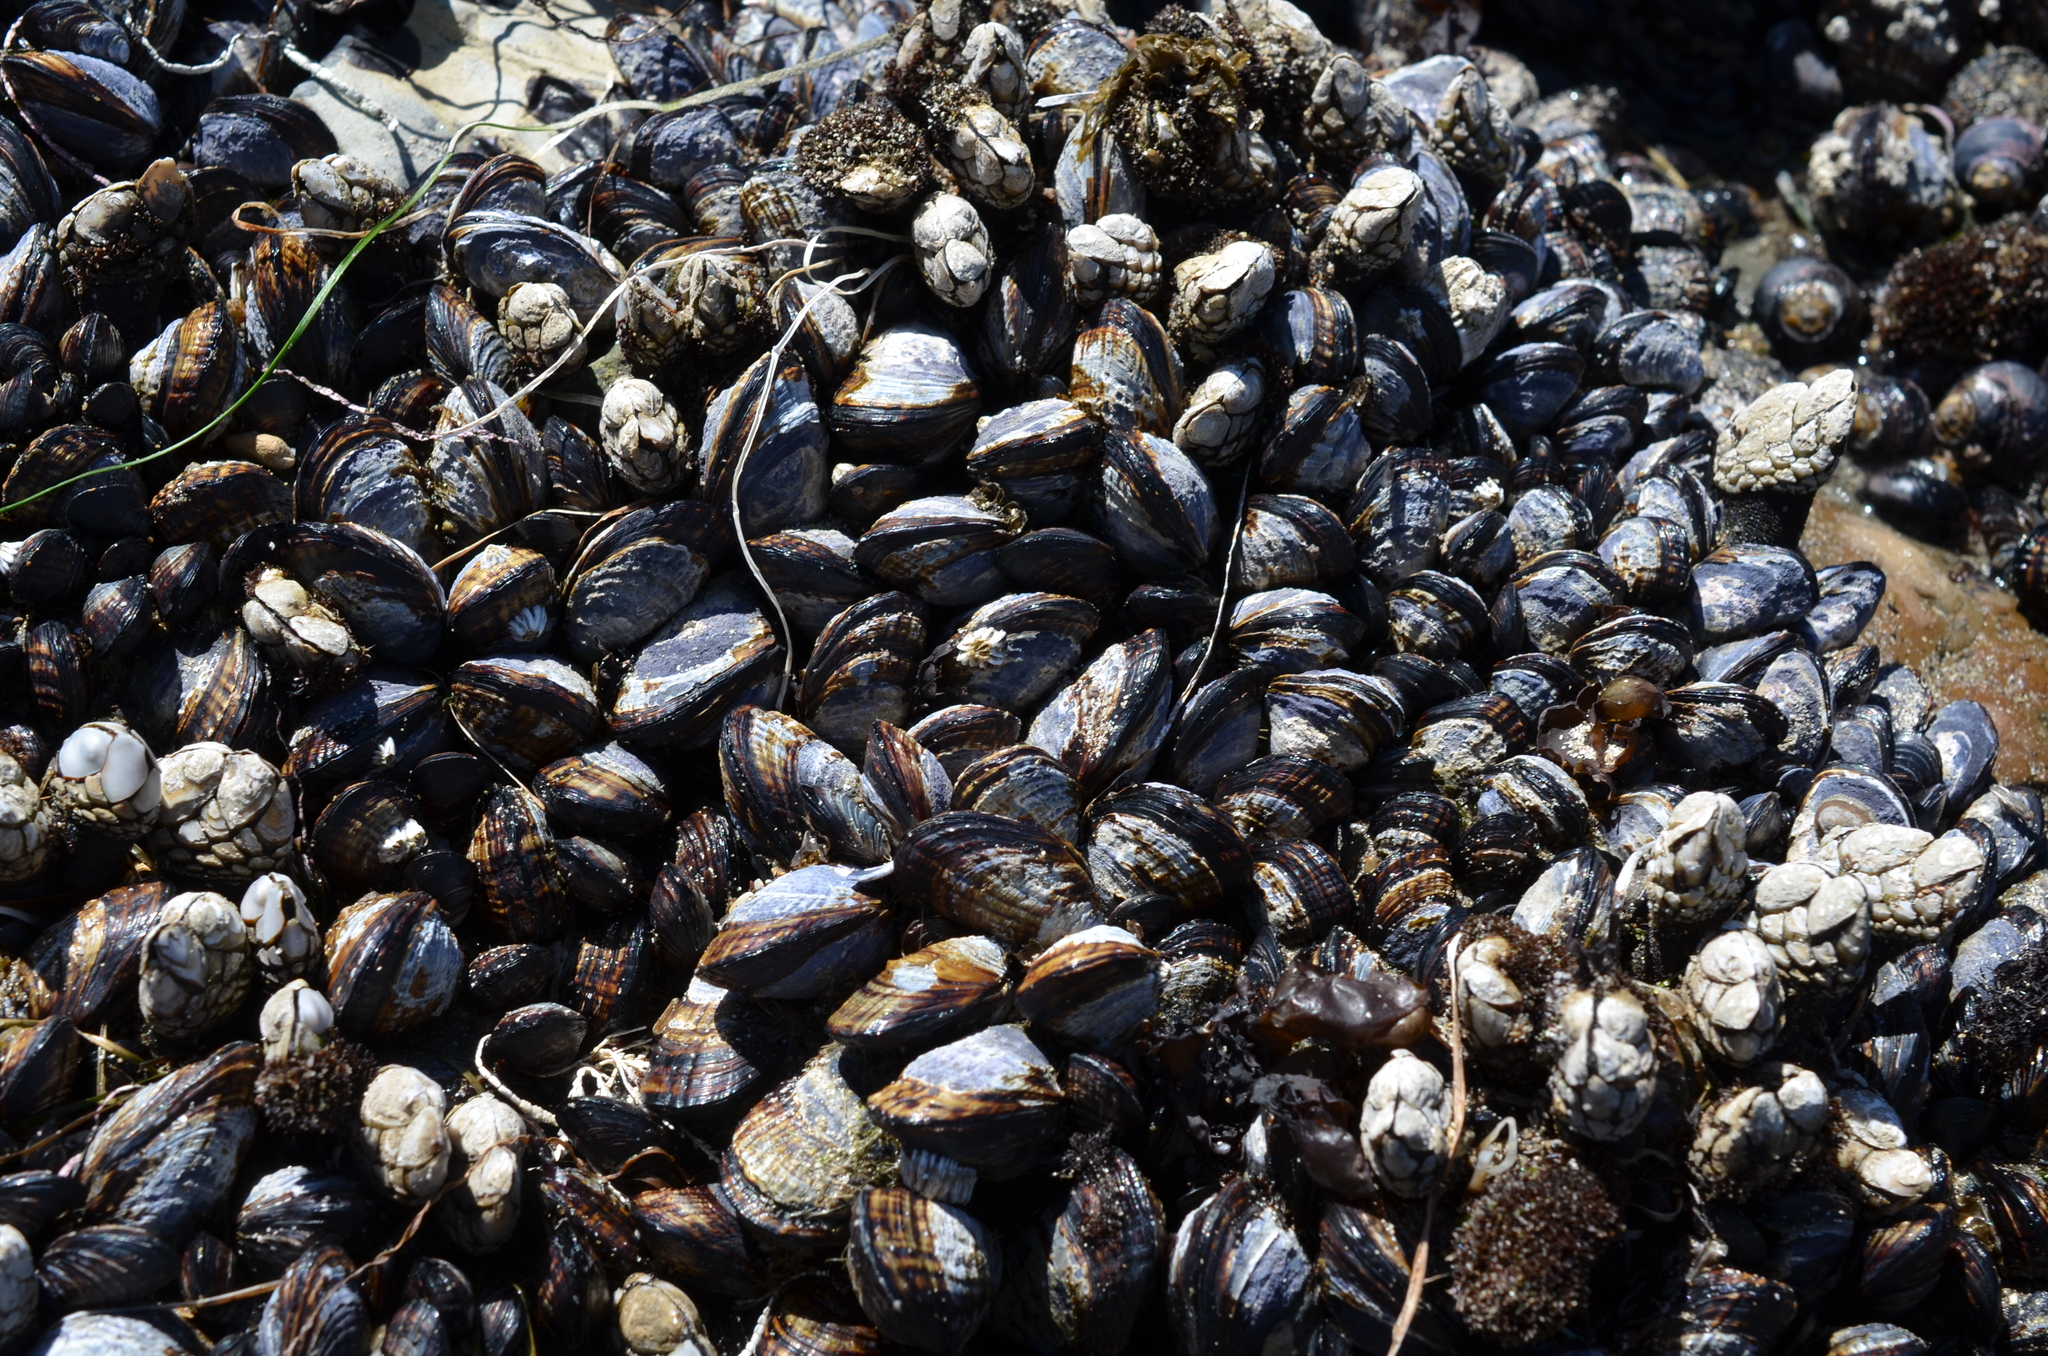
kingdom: Animalia
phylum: Mollusca
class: Bivalvia
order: Mytilida
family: Mytilidae
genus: Mytilus
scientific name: Mytilus californianus
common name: California mussel
